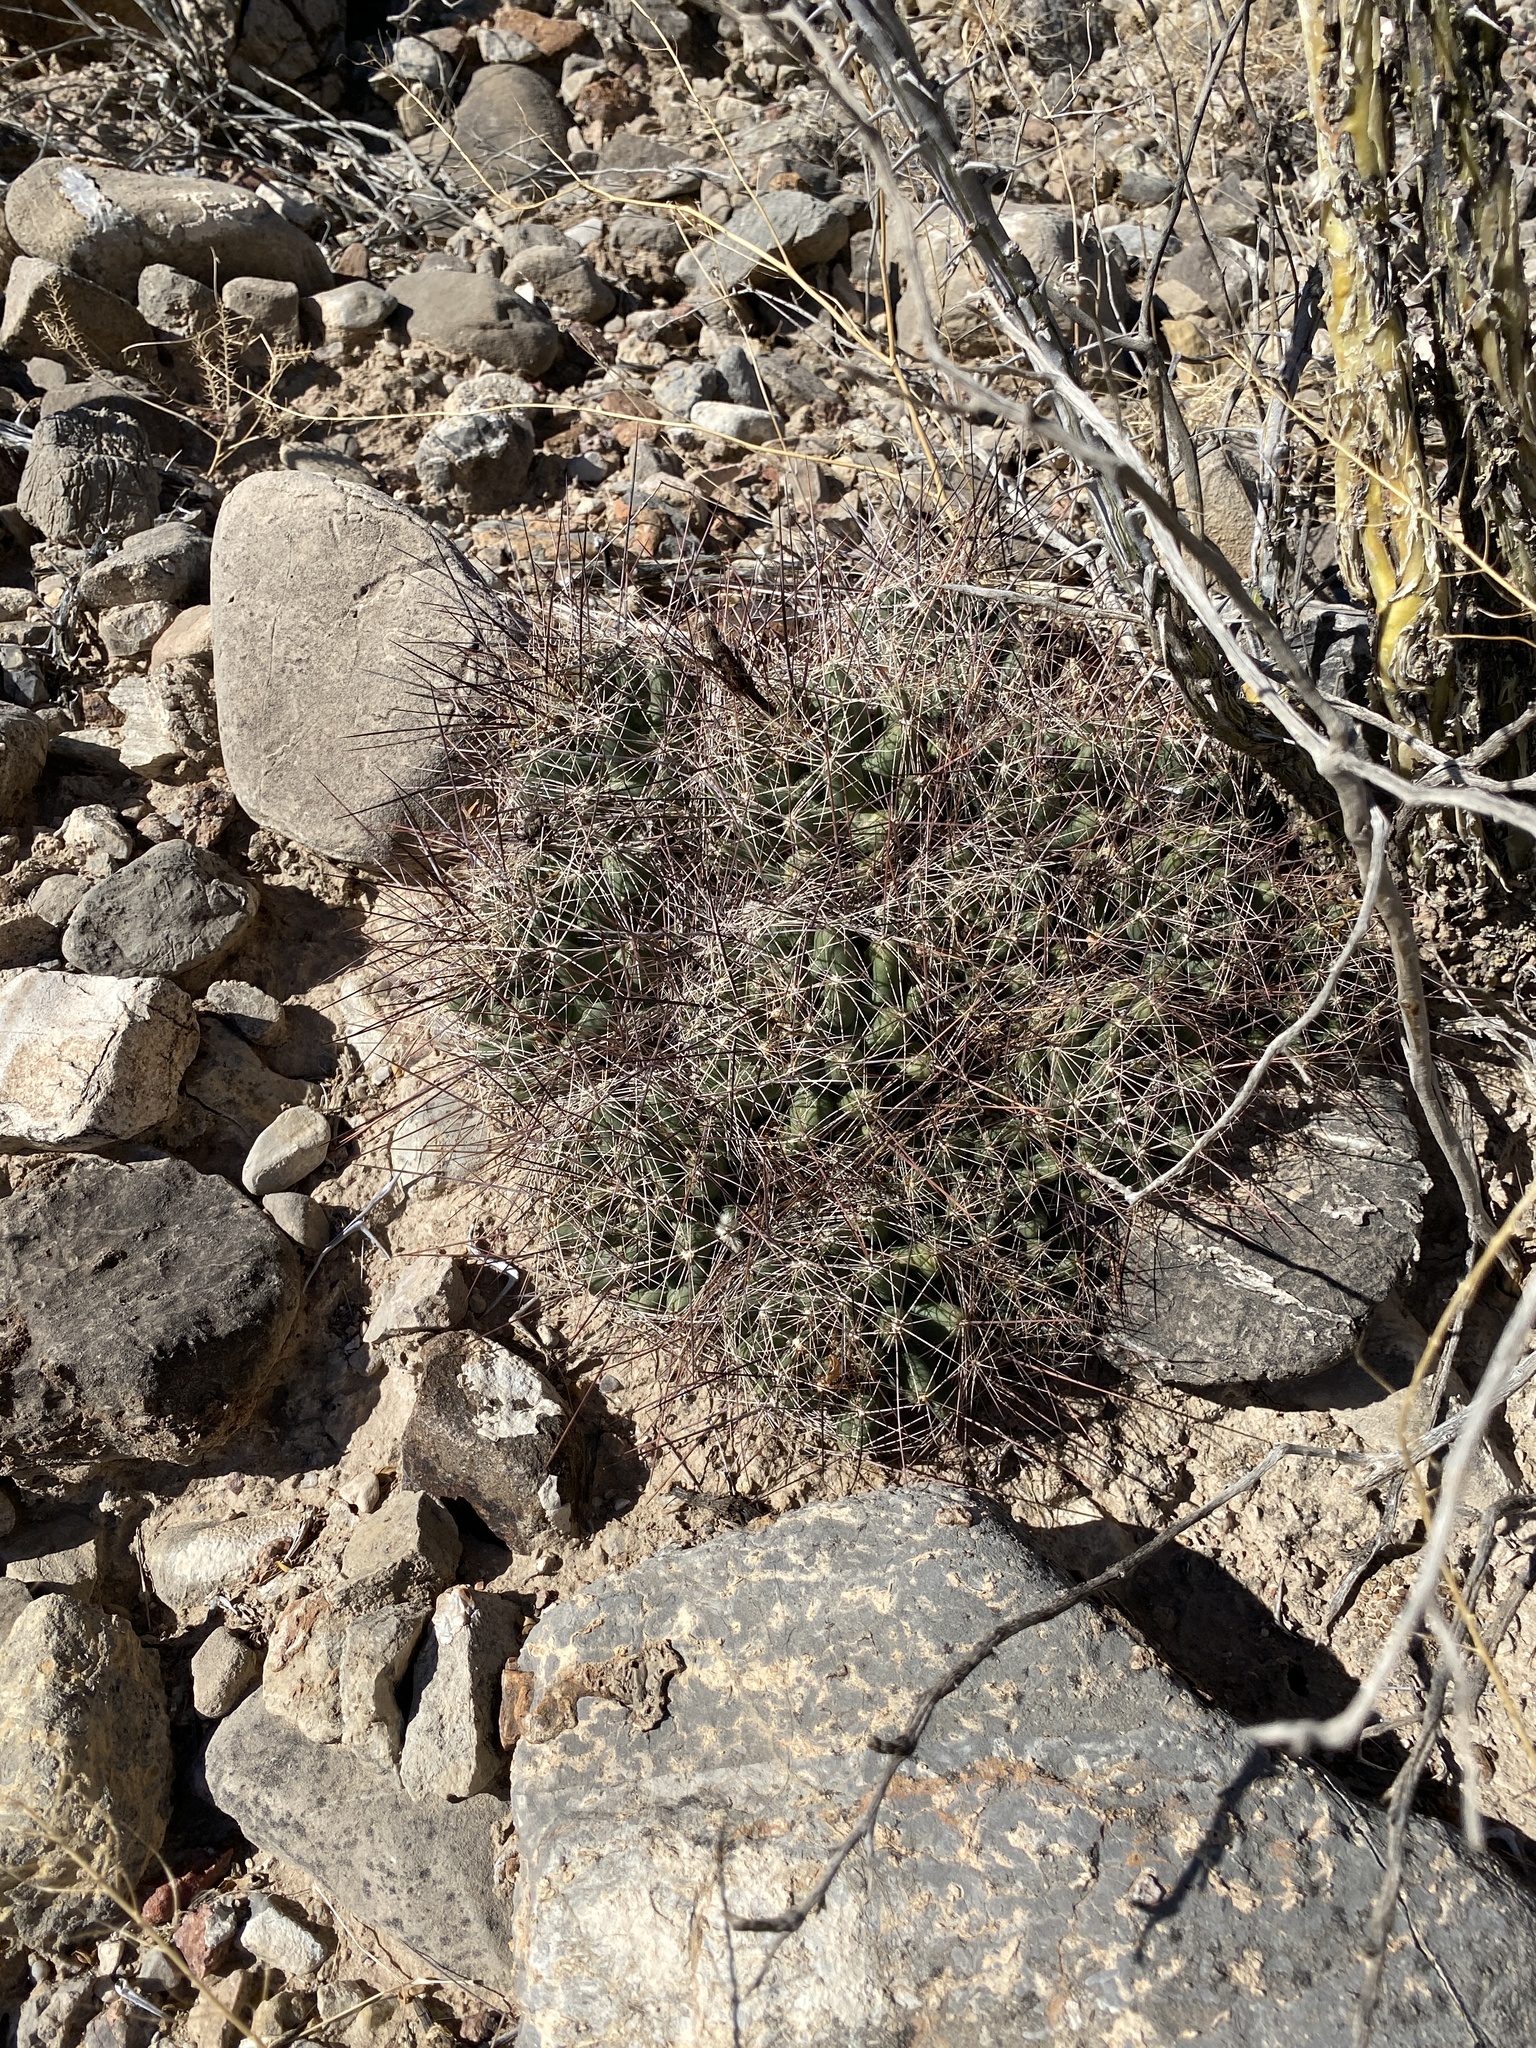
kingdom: Plantae
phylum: Tracheophyta
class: Magnoliopsida
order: Caryophyllales
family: Cactaceae
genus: Coryphantha
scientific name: Coryphantha macromeris
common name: Nipple beehive cactus
